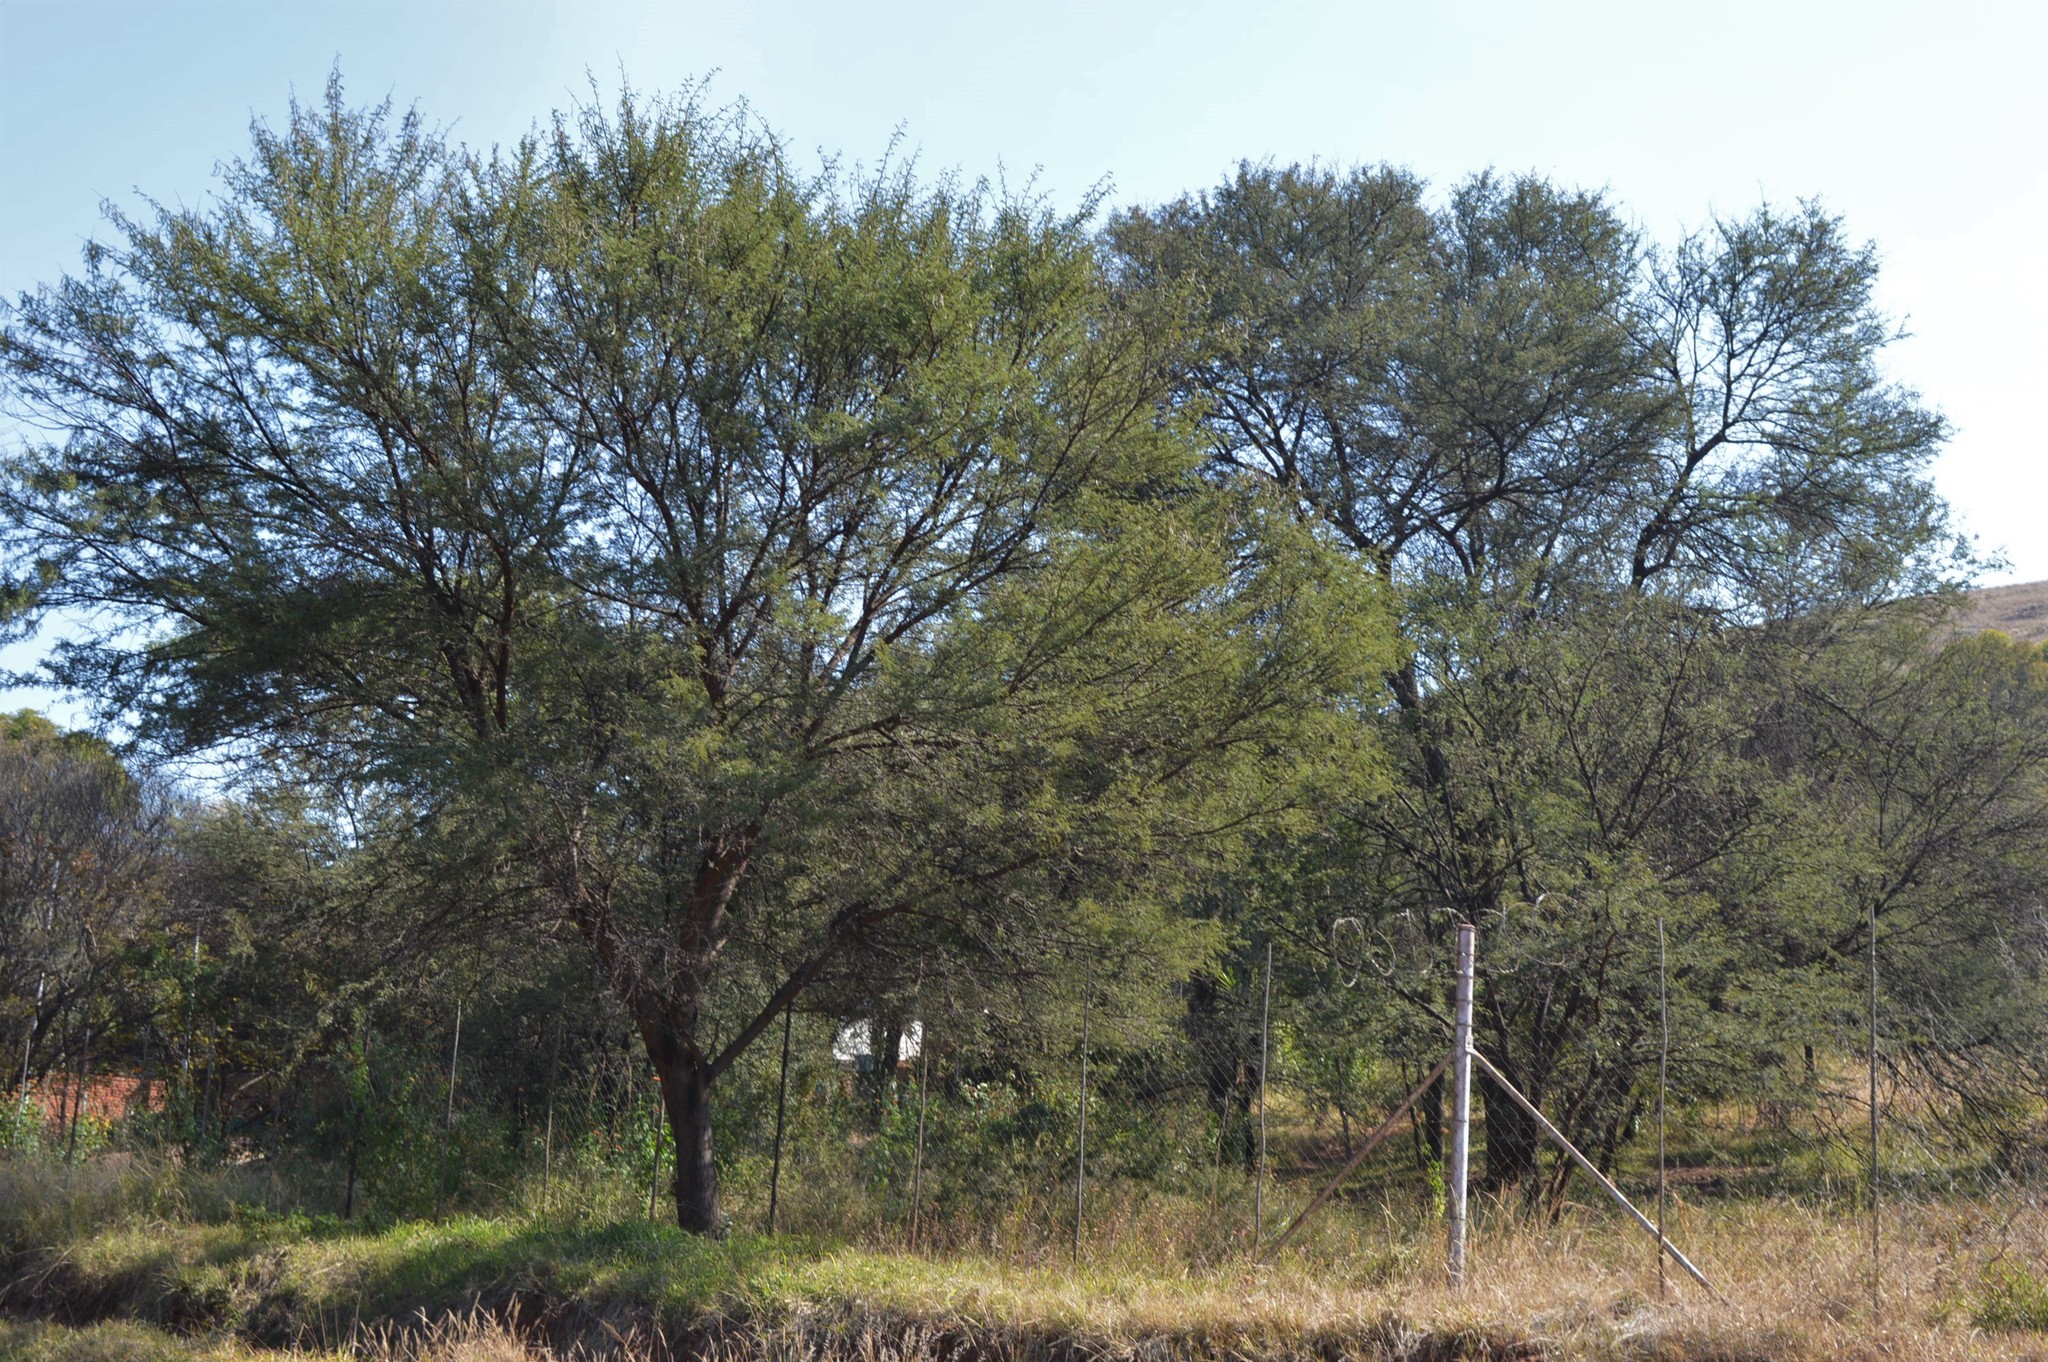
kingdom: Plantae
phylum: Tracheophyta
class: Magnoliopsida
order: Fabales
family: Fabaceae
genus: Vachellia
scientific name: Vachellia karroo
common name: Sweet thorn
